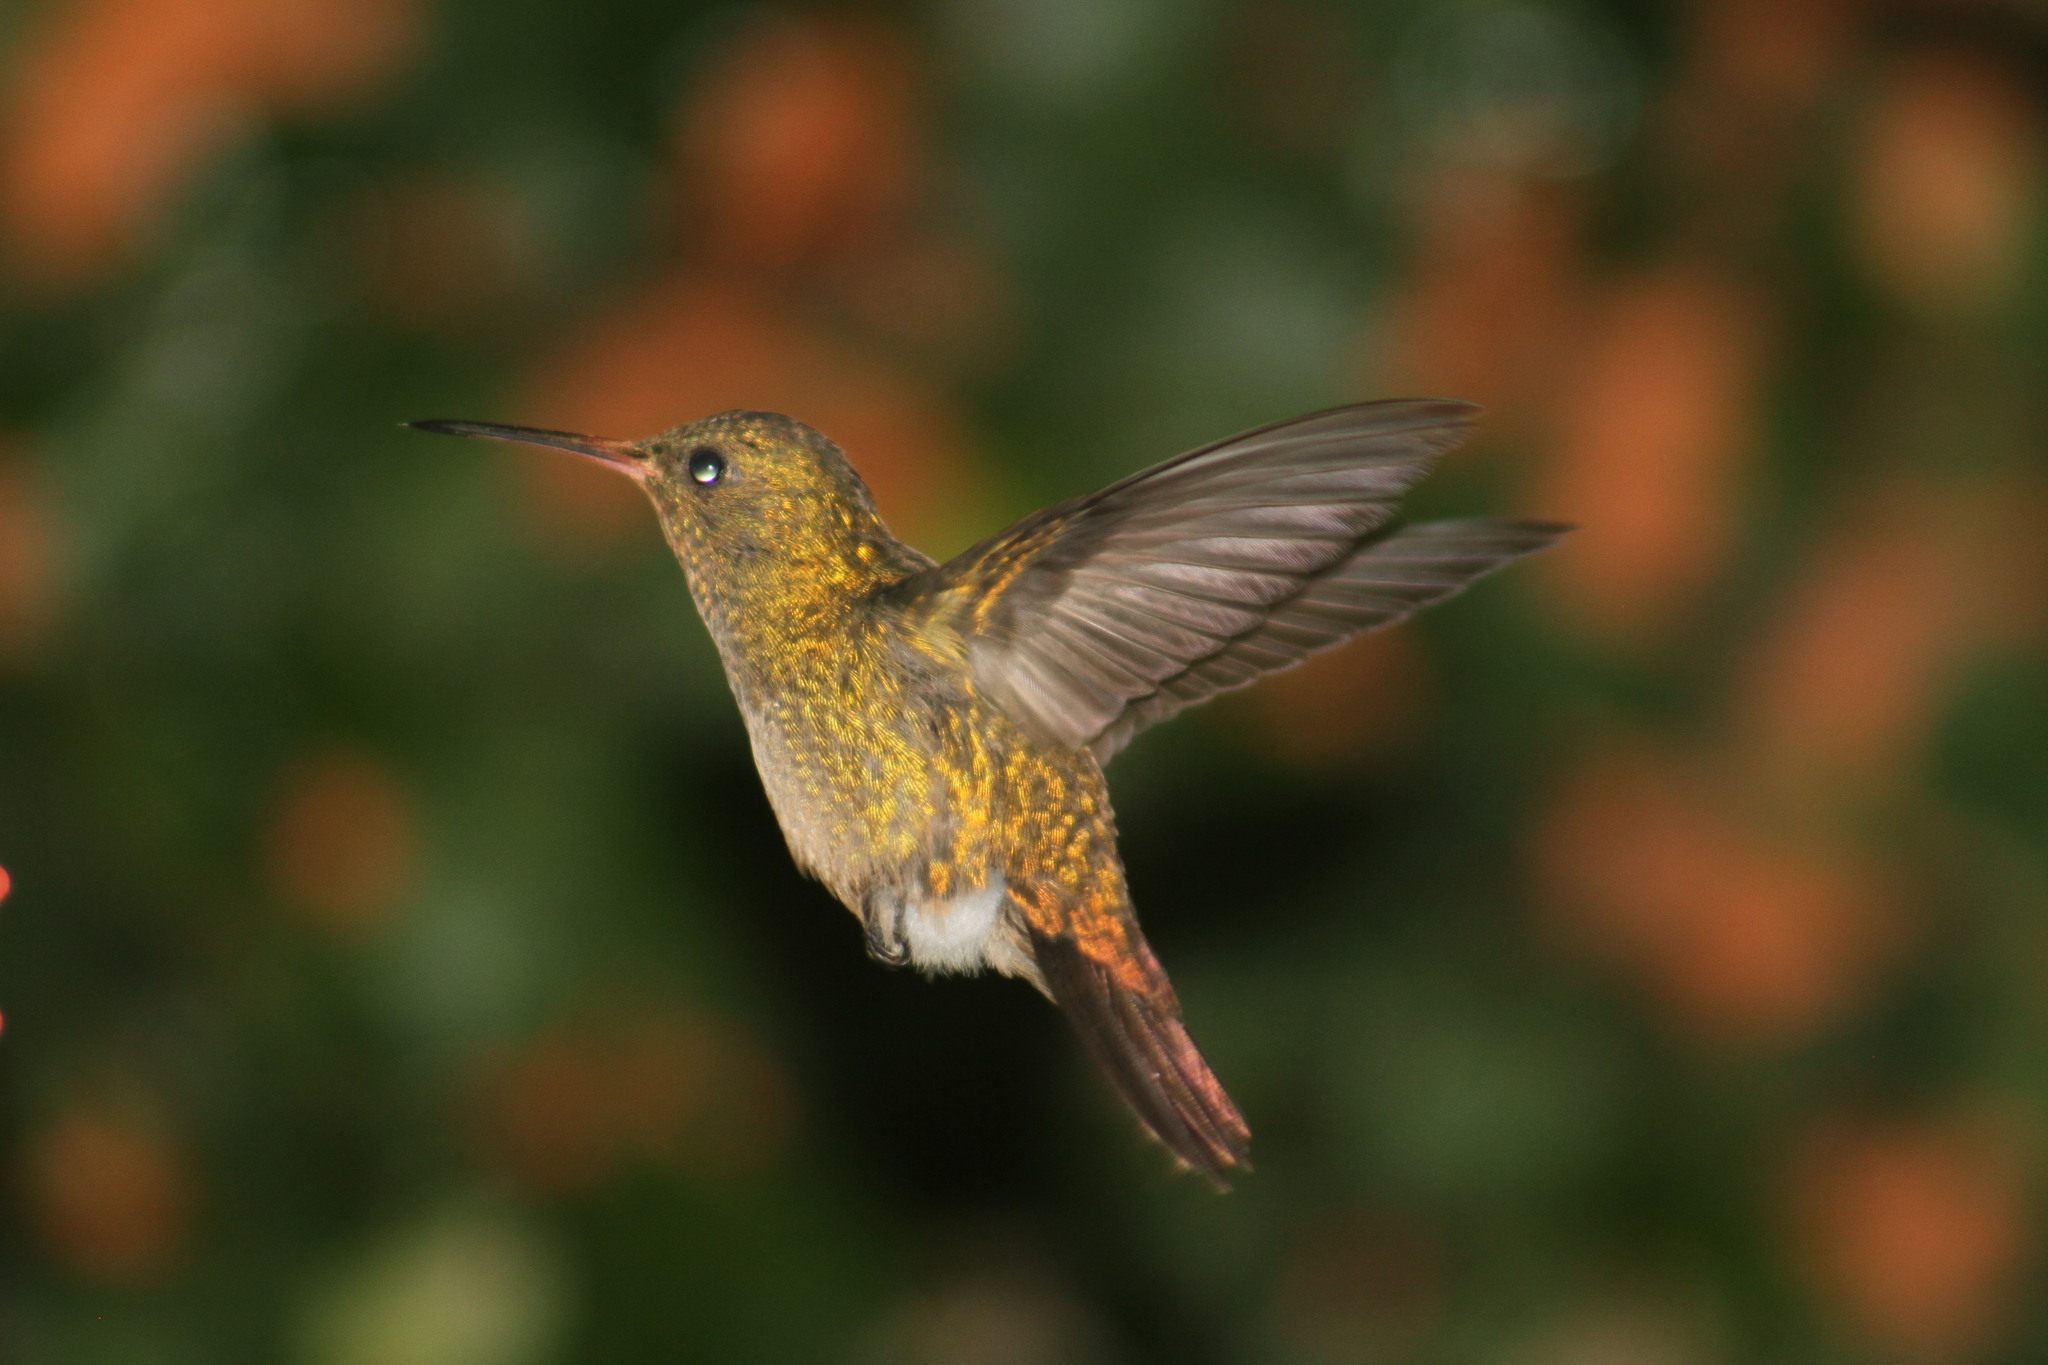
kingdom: Animalia
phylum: Chordata
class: Aves
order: Apodiformes
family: Trochilidae
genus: Hylocharis
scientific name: Hylocharis chrysura
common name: Gilded sapphire
